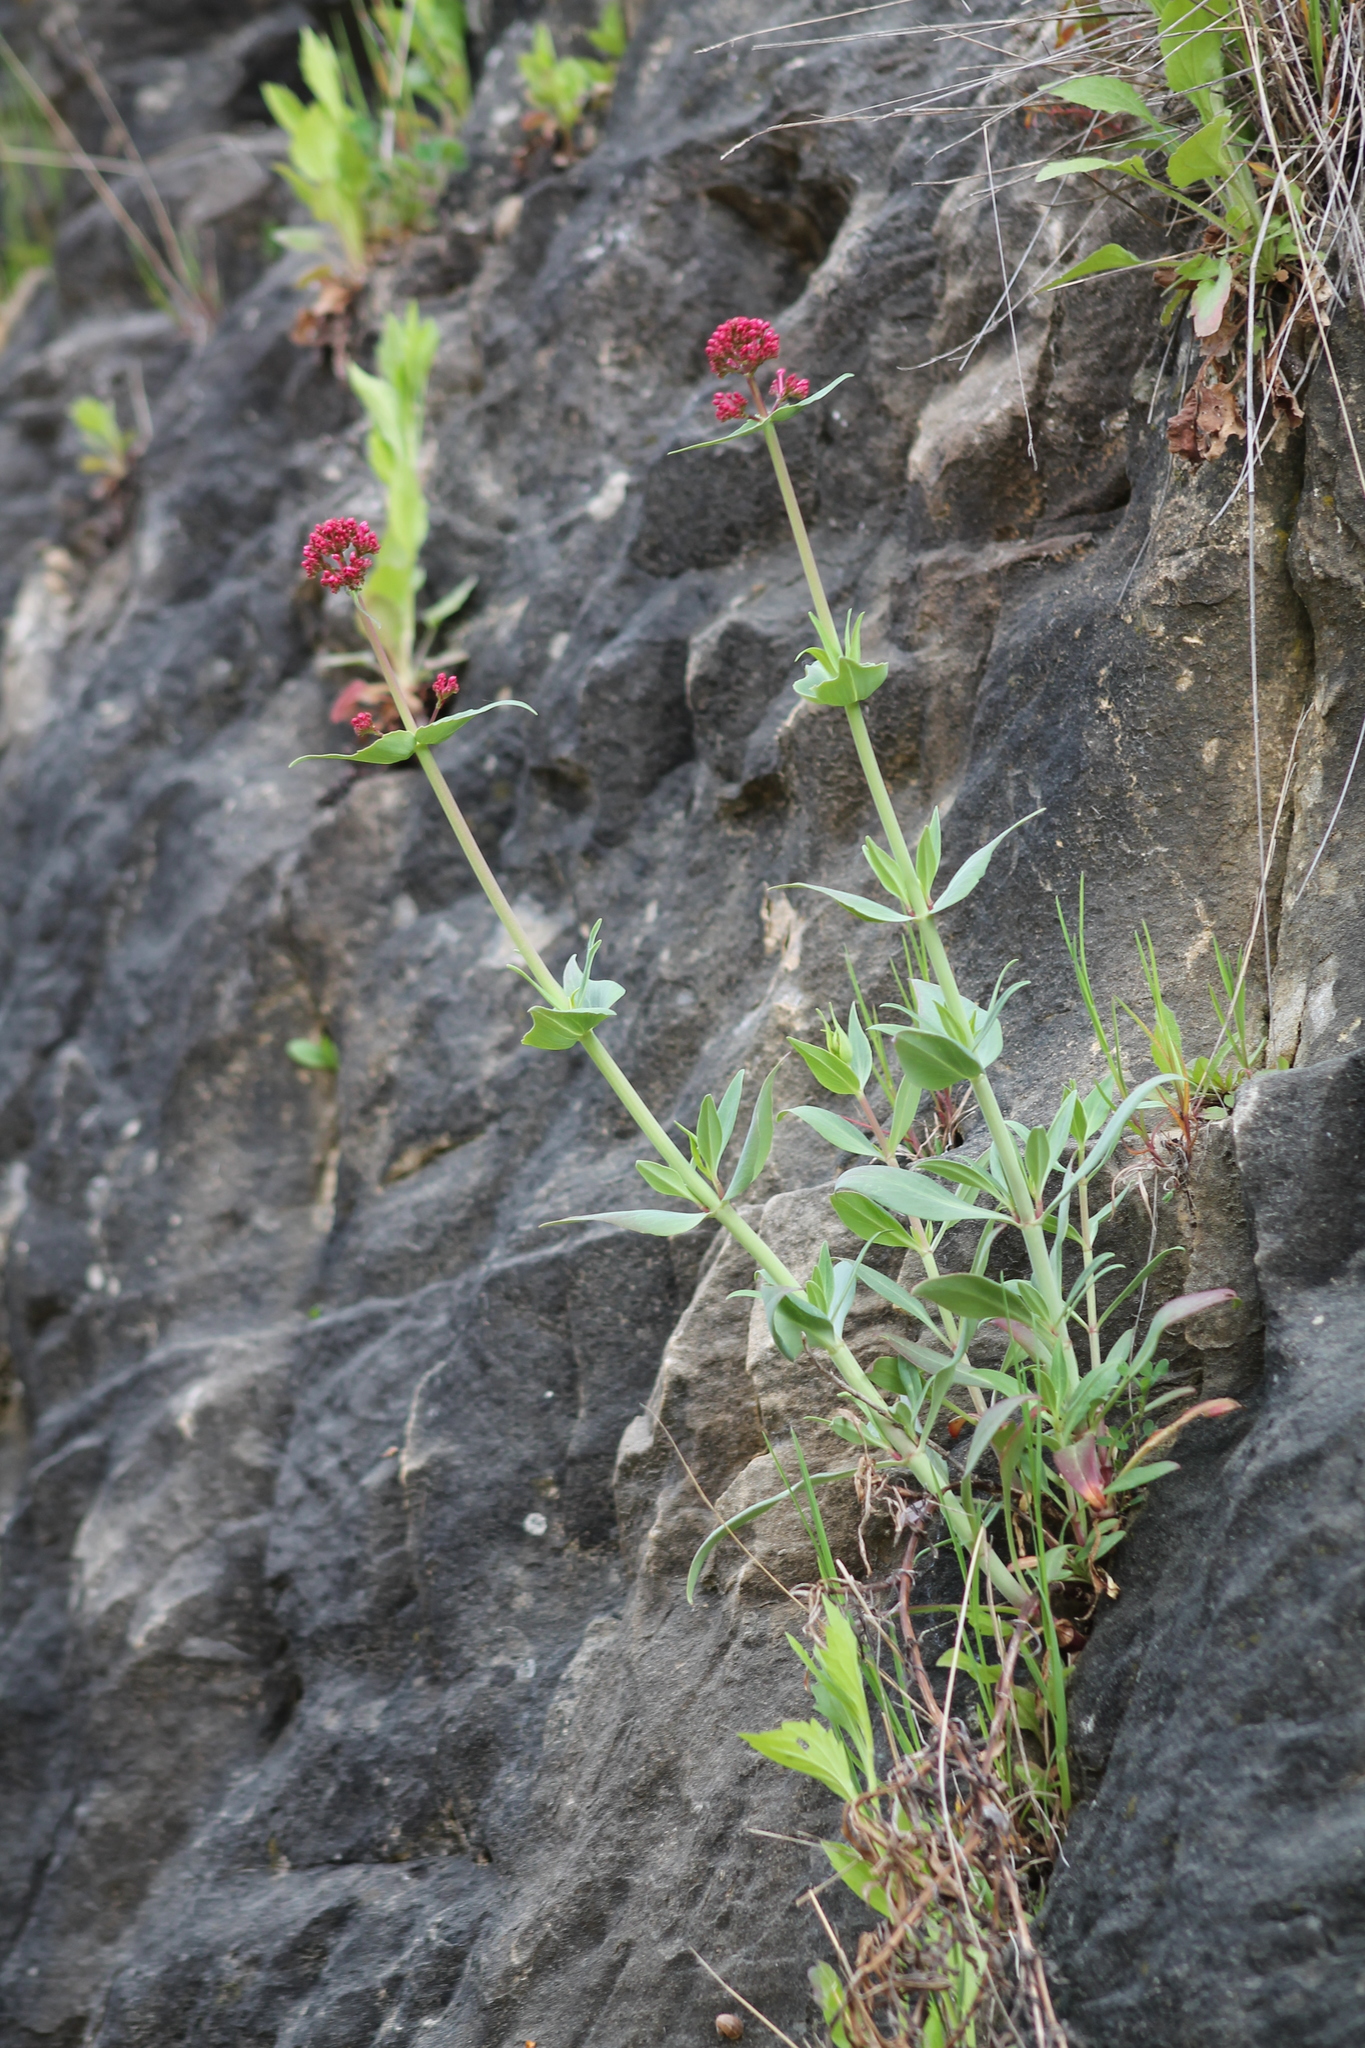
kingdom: Plantae
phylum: Tracheophyta
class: Magnoliopsida
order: Dipsacales
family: Caprifoliaceae
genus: Centranthus
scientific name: Centranthus ruber
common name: Red valerian
